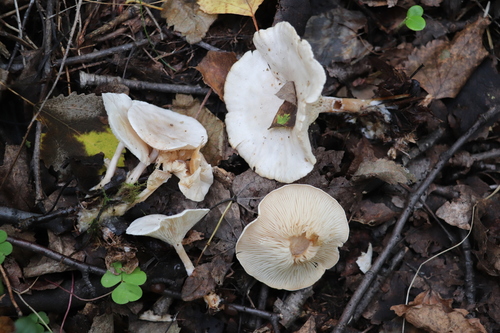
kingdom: Fungi
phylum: Basidiomycota
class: Agaricomycetes
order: Agaricales
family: Tricholomataceae
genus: Clitocybe
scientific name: Clitocybe rivulosa
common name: Cracking clitocybe
